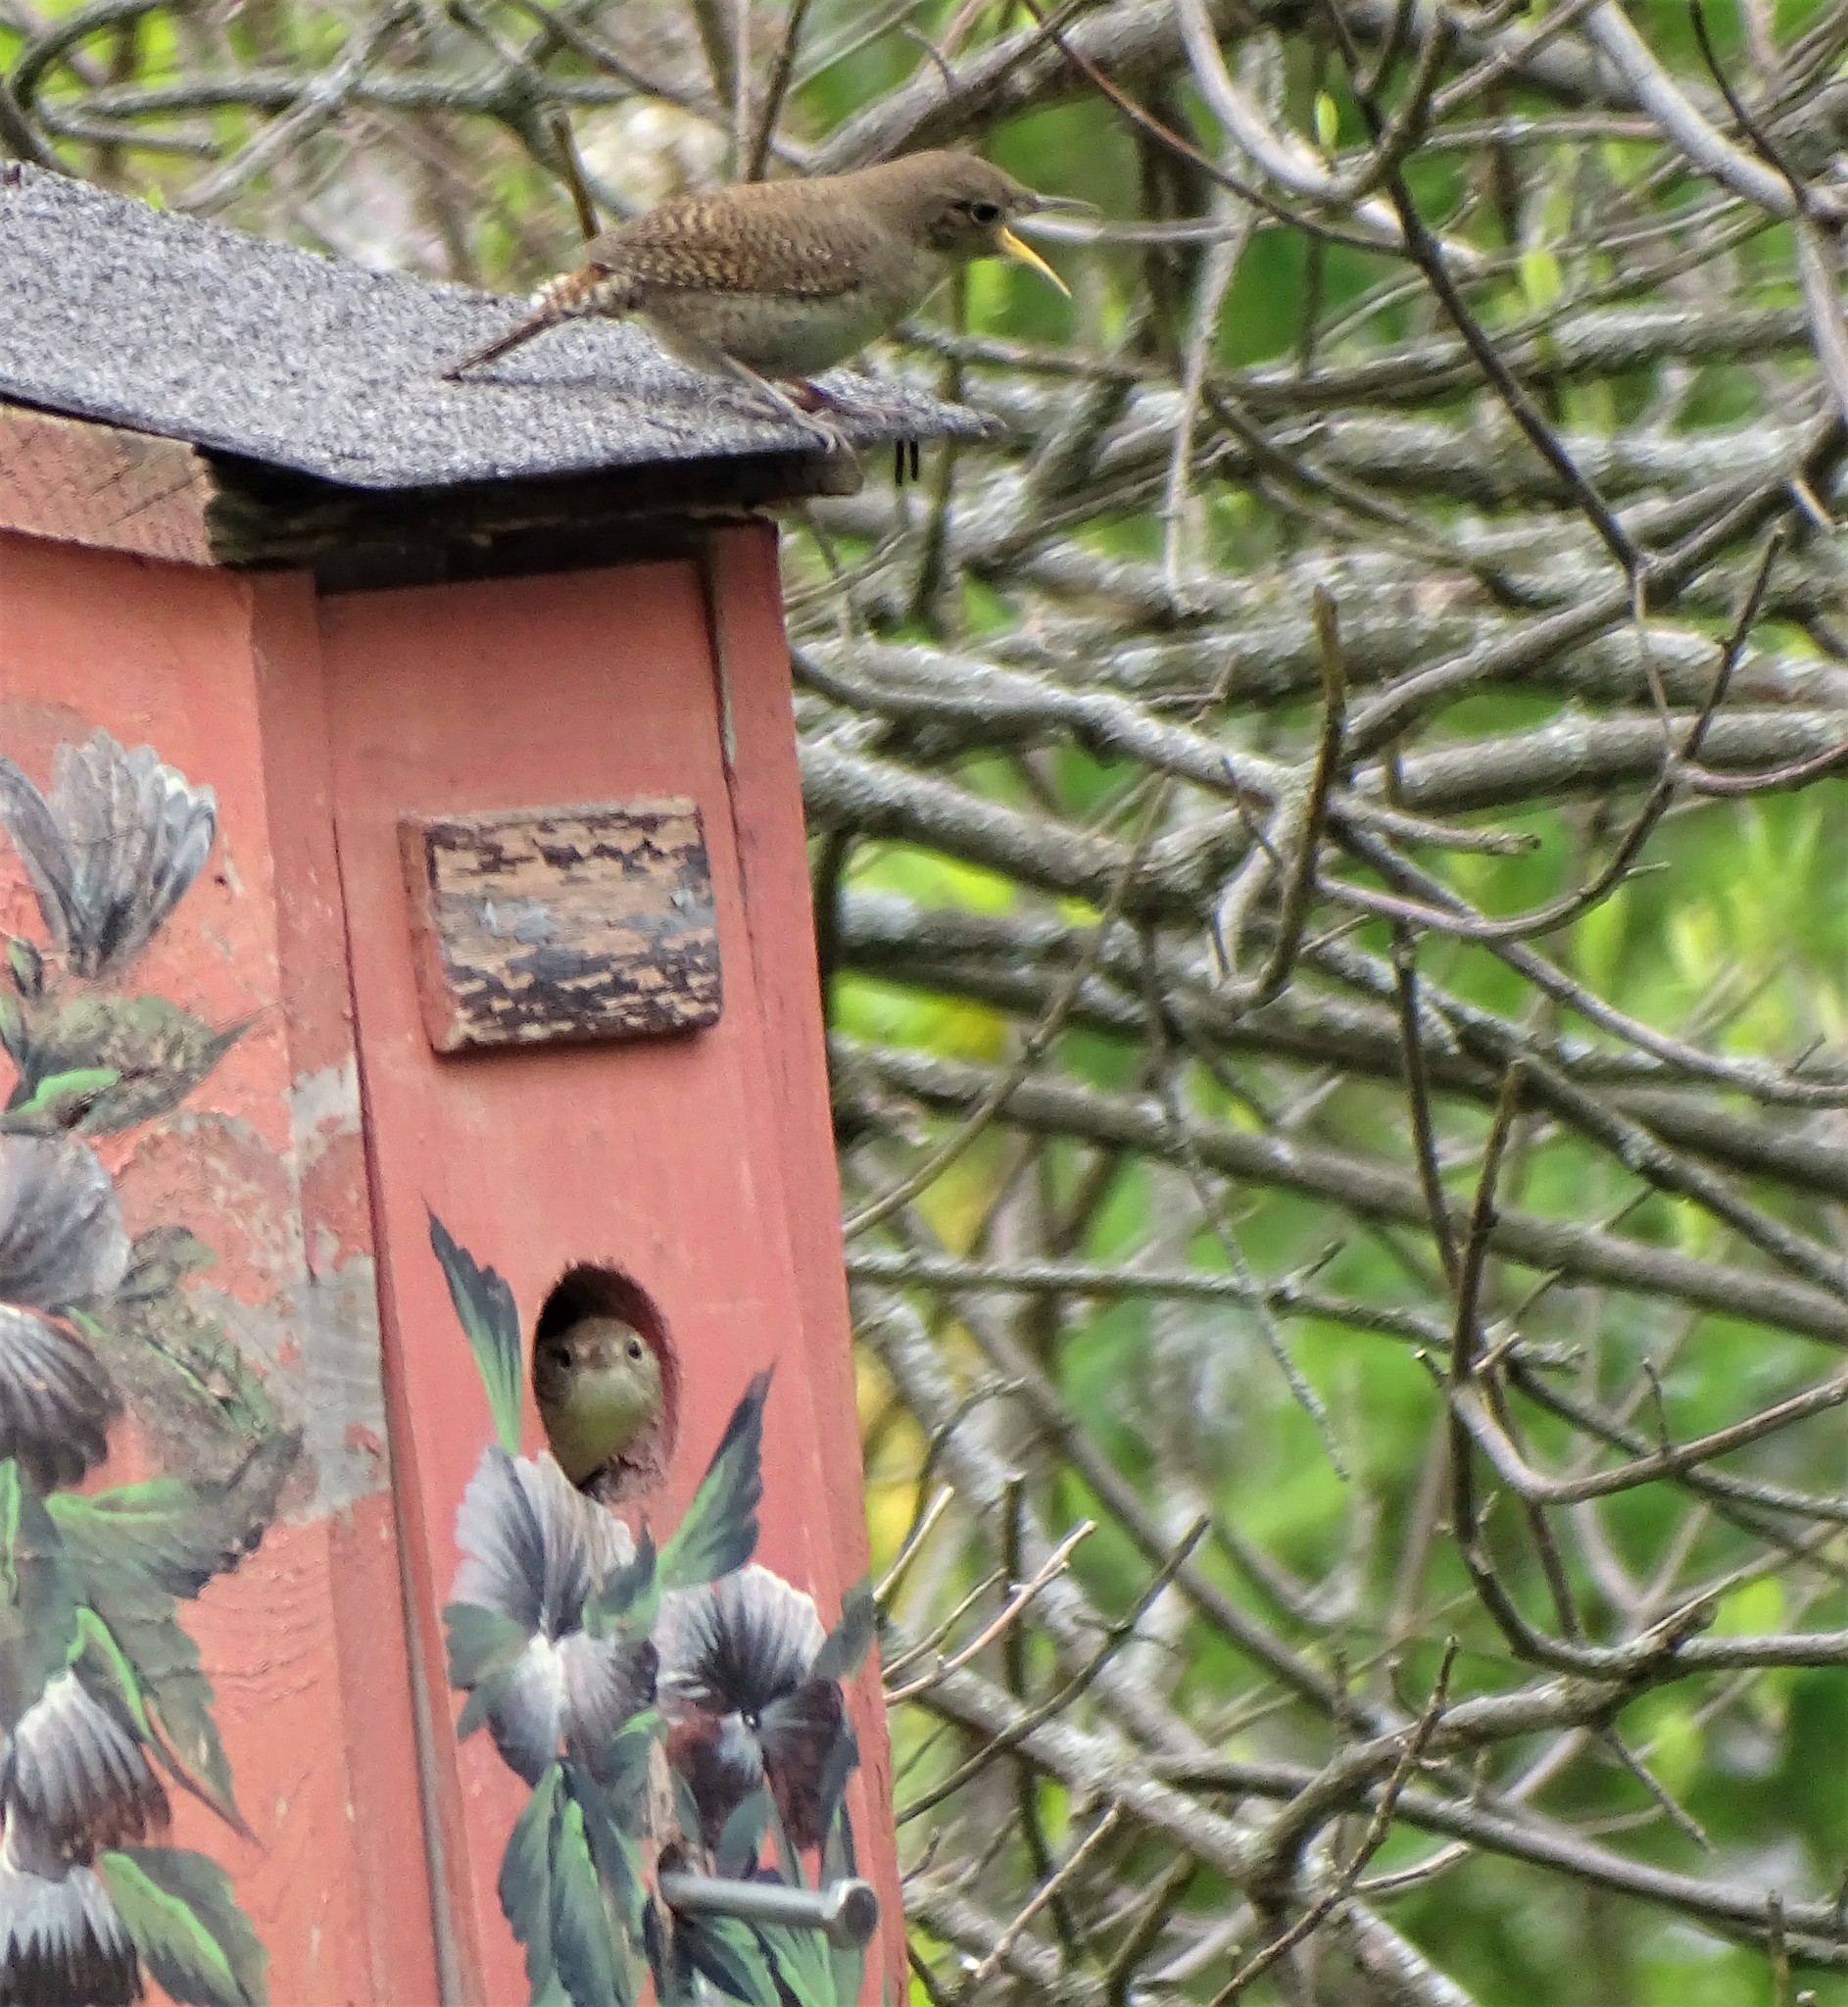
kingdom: Animalia
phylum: Chordata
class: Aves
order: Passeriformes
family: Troglodytidae
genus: Troglodytes
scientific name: Troglodytes aedon
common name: House wren
